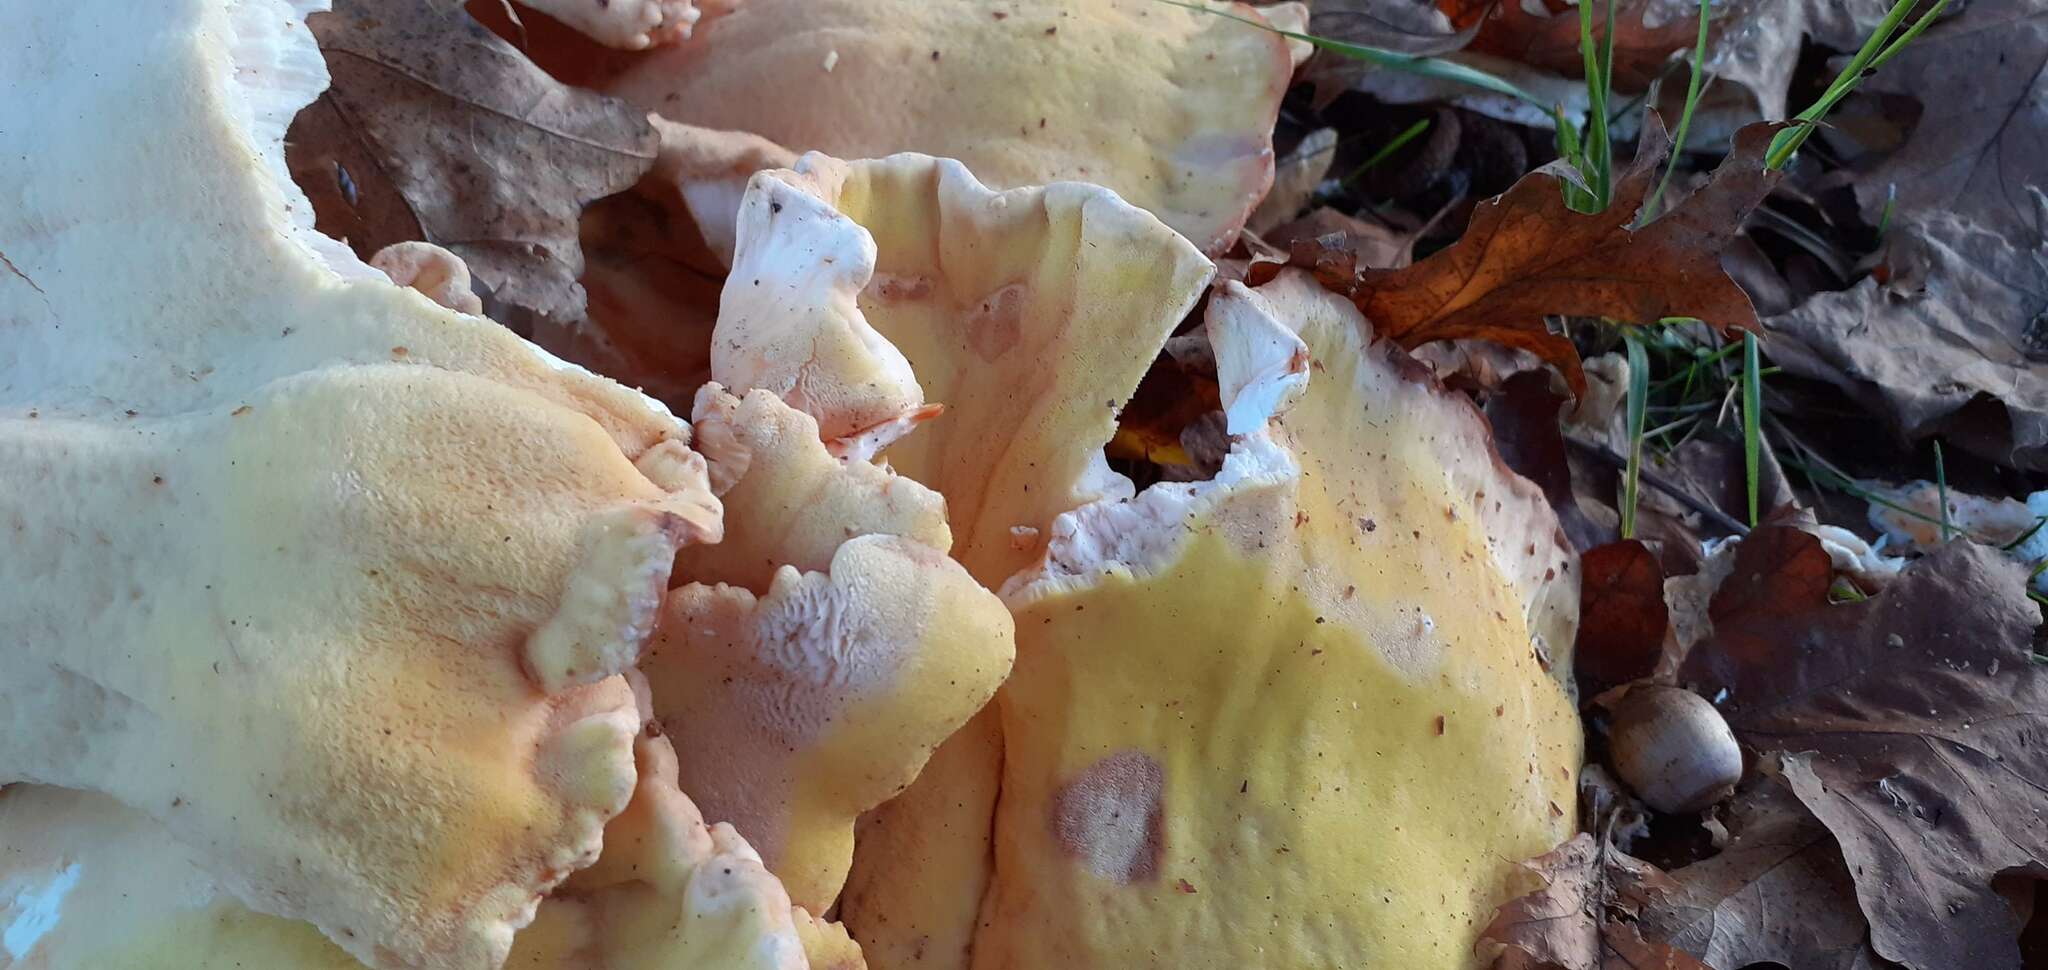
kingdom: Fungi
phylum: Basidiomycota
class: Agaricomycetes
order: Polyporales
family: Laetiporaceae
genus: Laetiporus
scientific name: Laetiporus sulphureus
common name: Chicken of the woods
